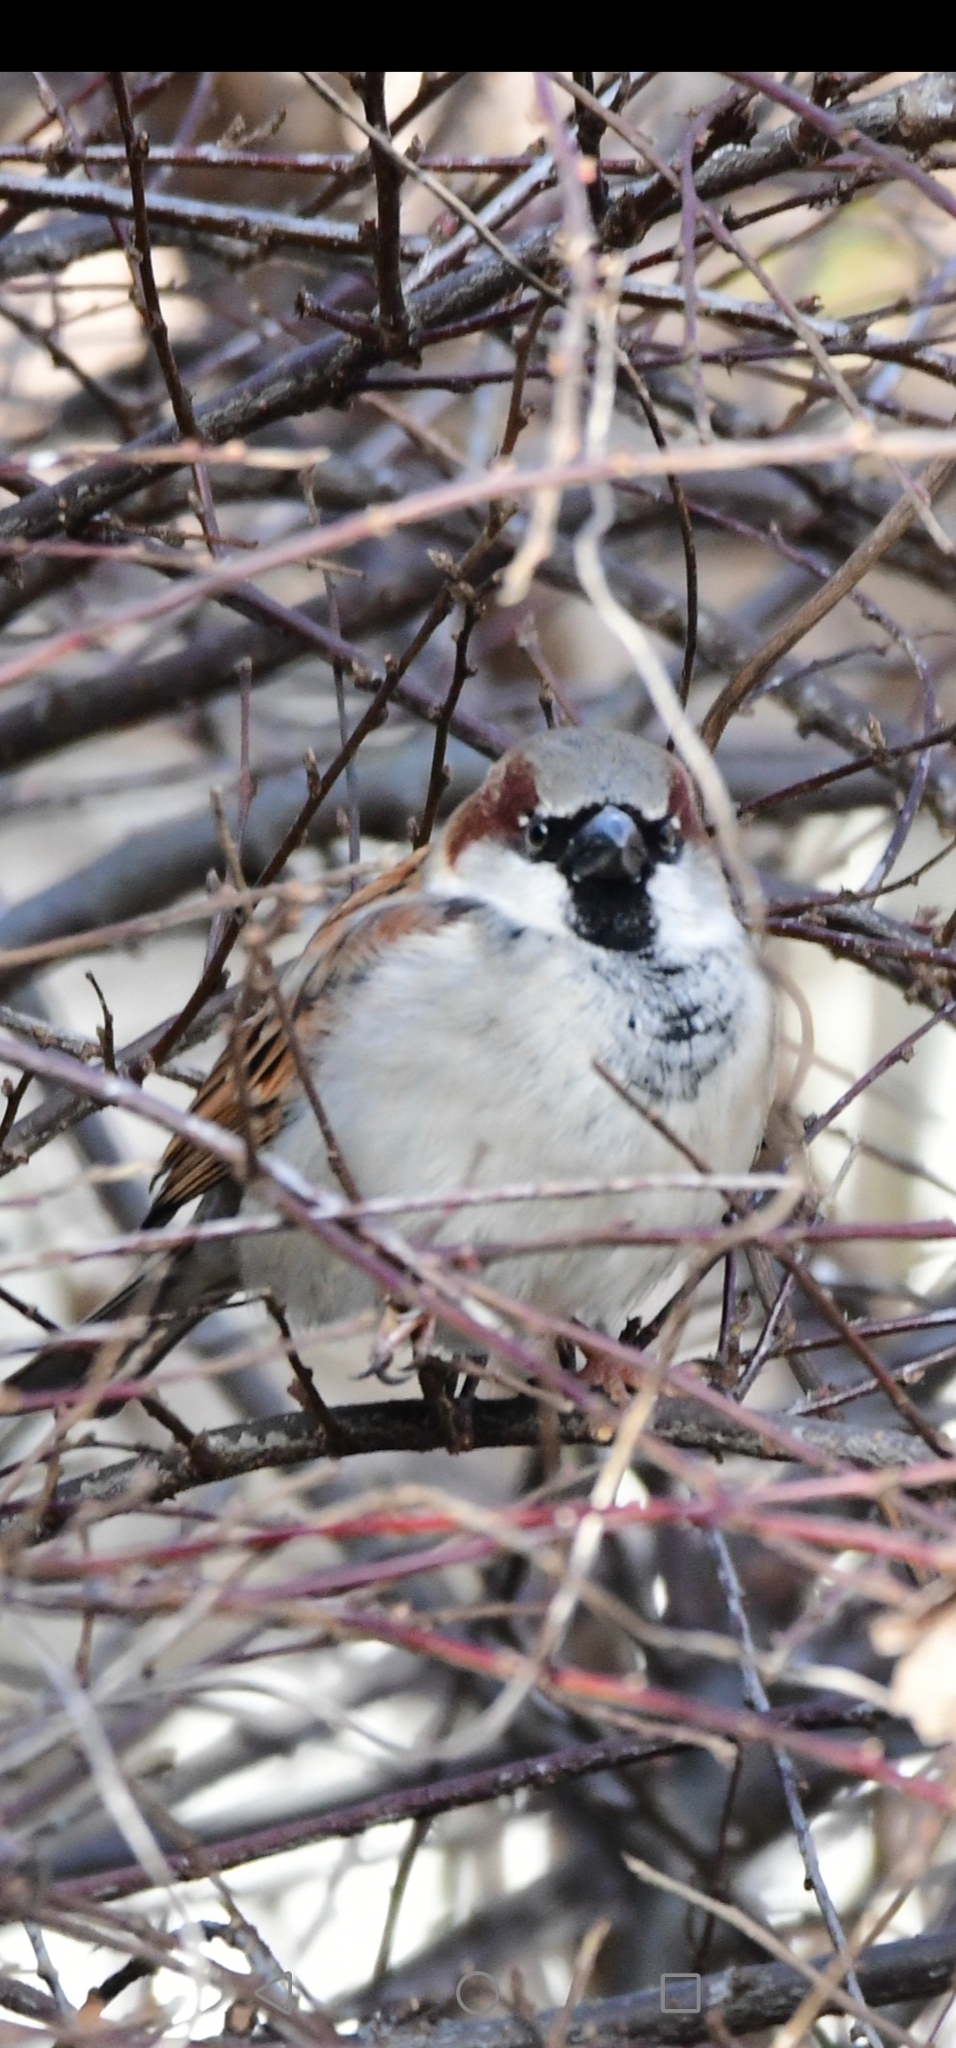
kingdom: Animalia
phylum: Chordata
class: Aves
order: Passeriformes
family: Passeridae
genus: Passer
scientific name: Passer domesticus
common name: House sparrow
